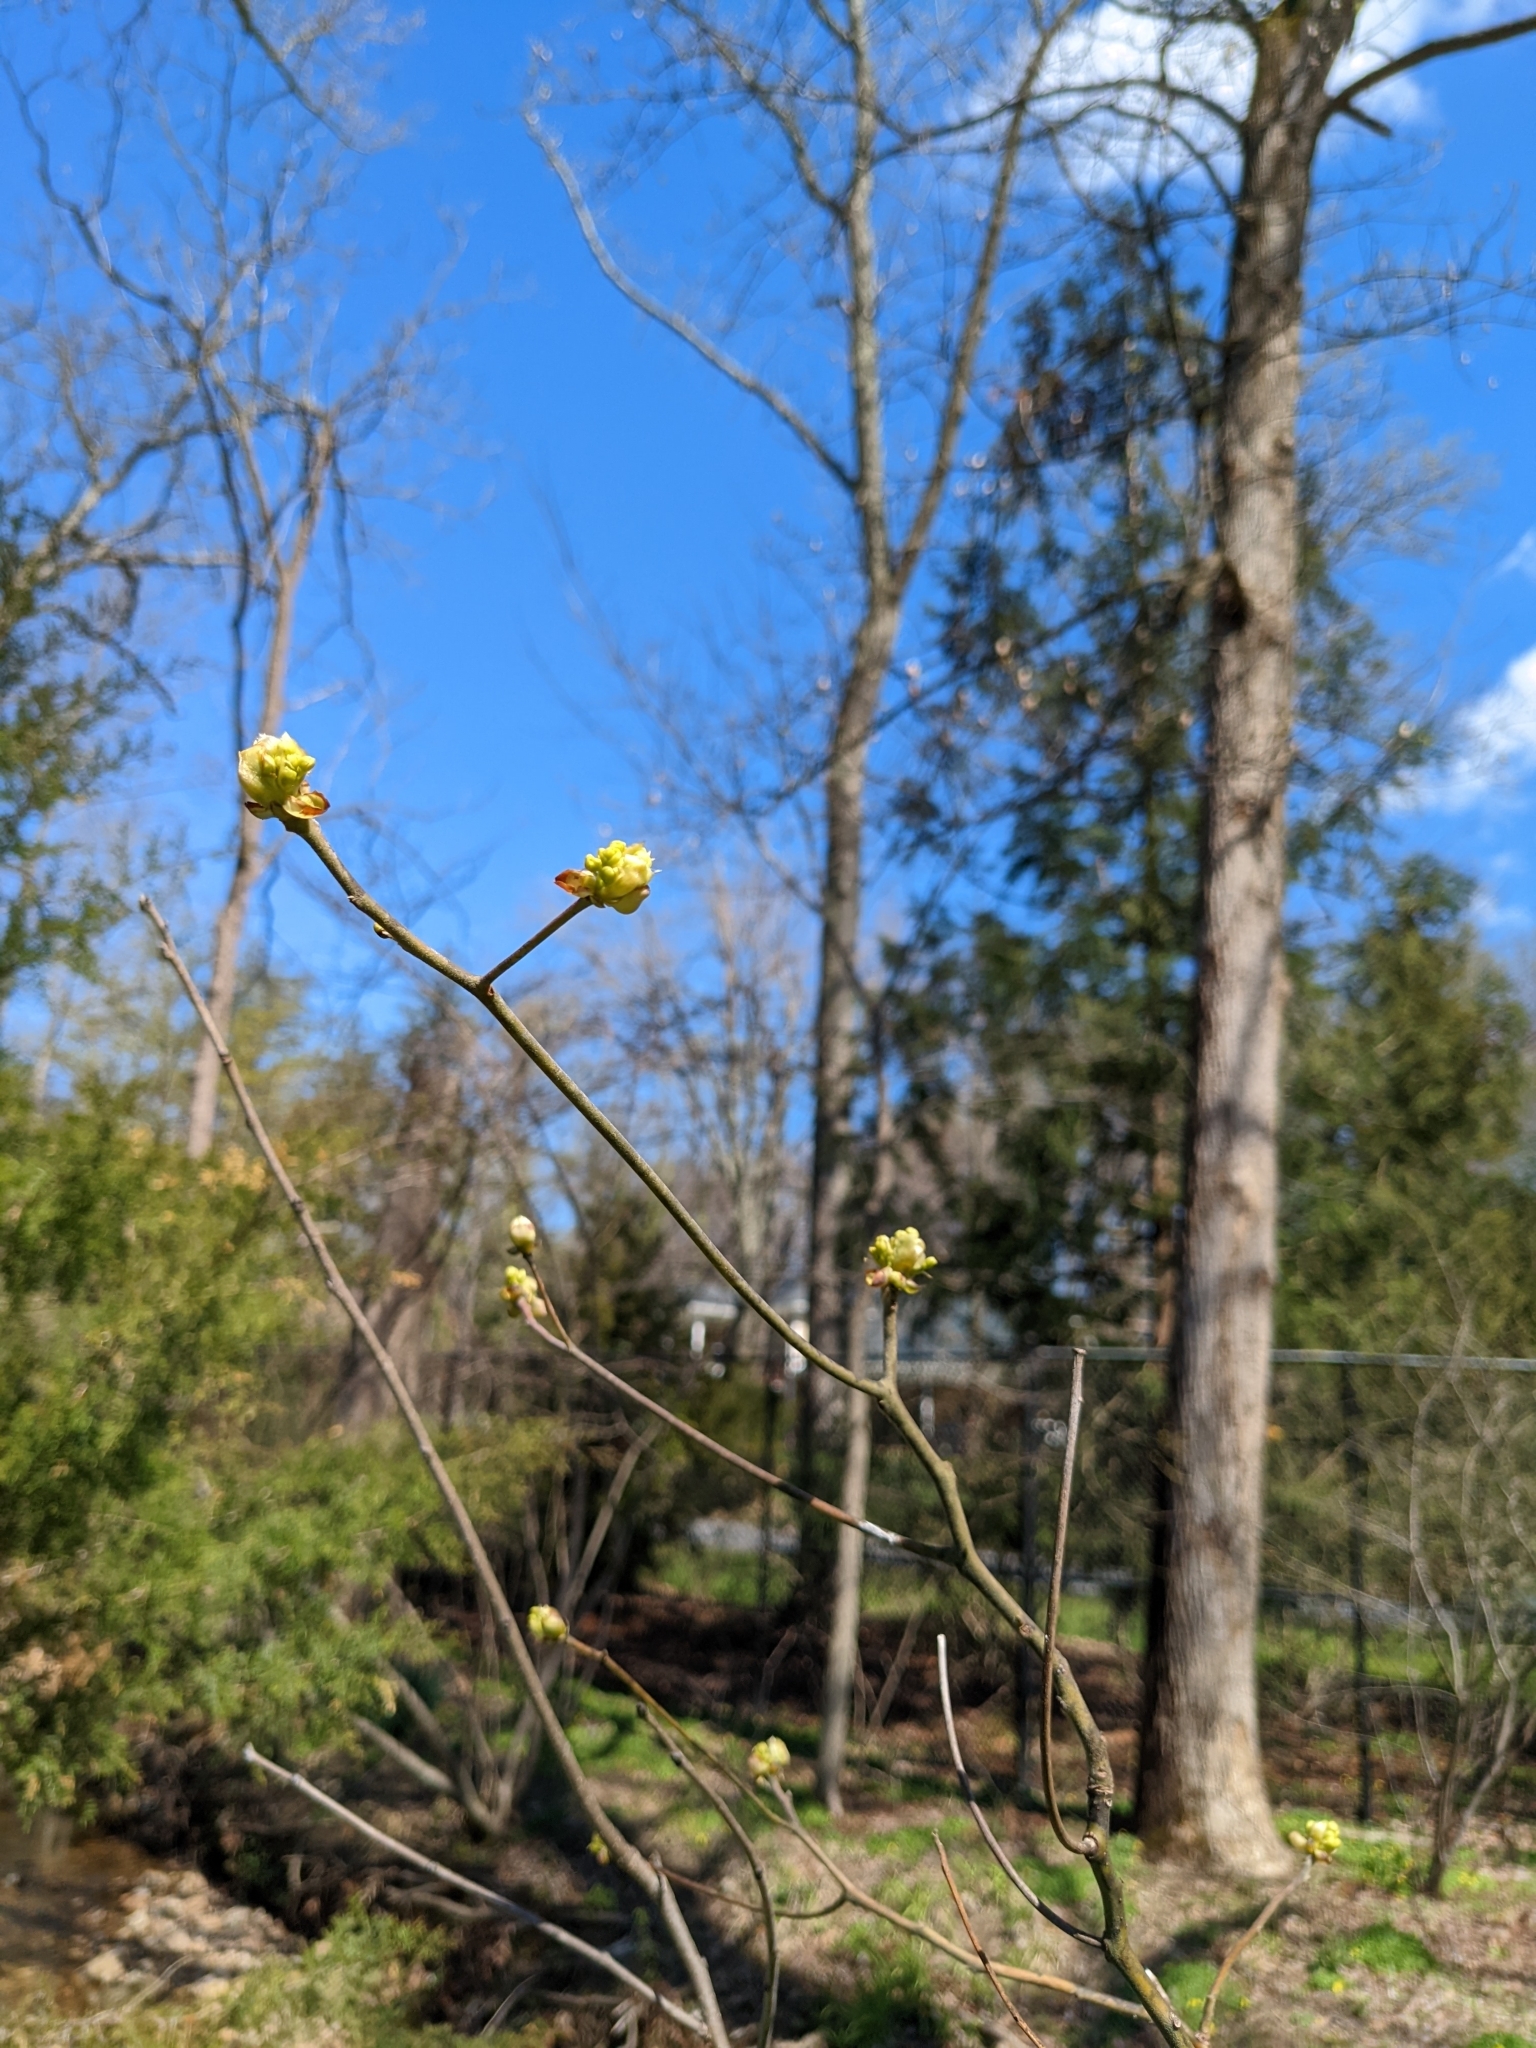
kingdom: Plantae
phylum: Tracheophyta
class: Magnoliopsida
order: Laurales
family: Lauraceae
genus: Sassafras
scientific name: Sassafras albidum
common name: Sassafras
